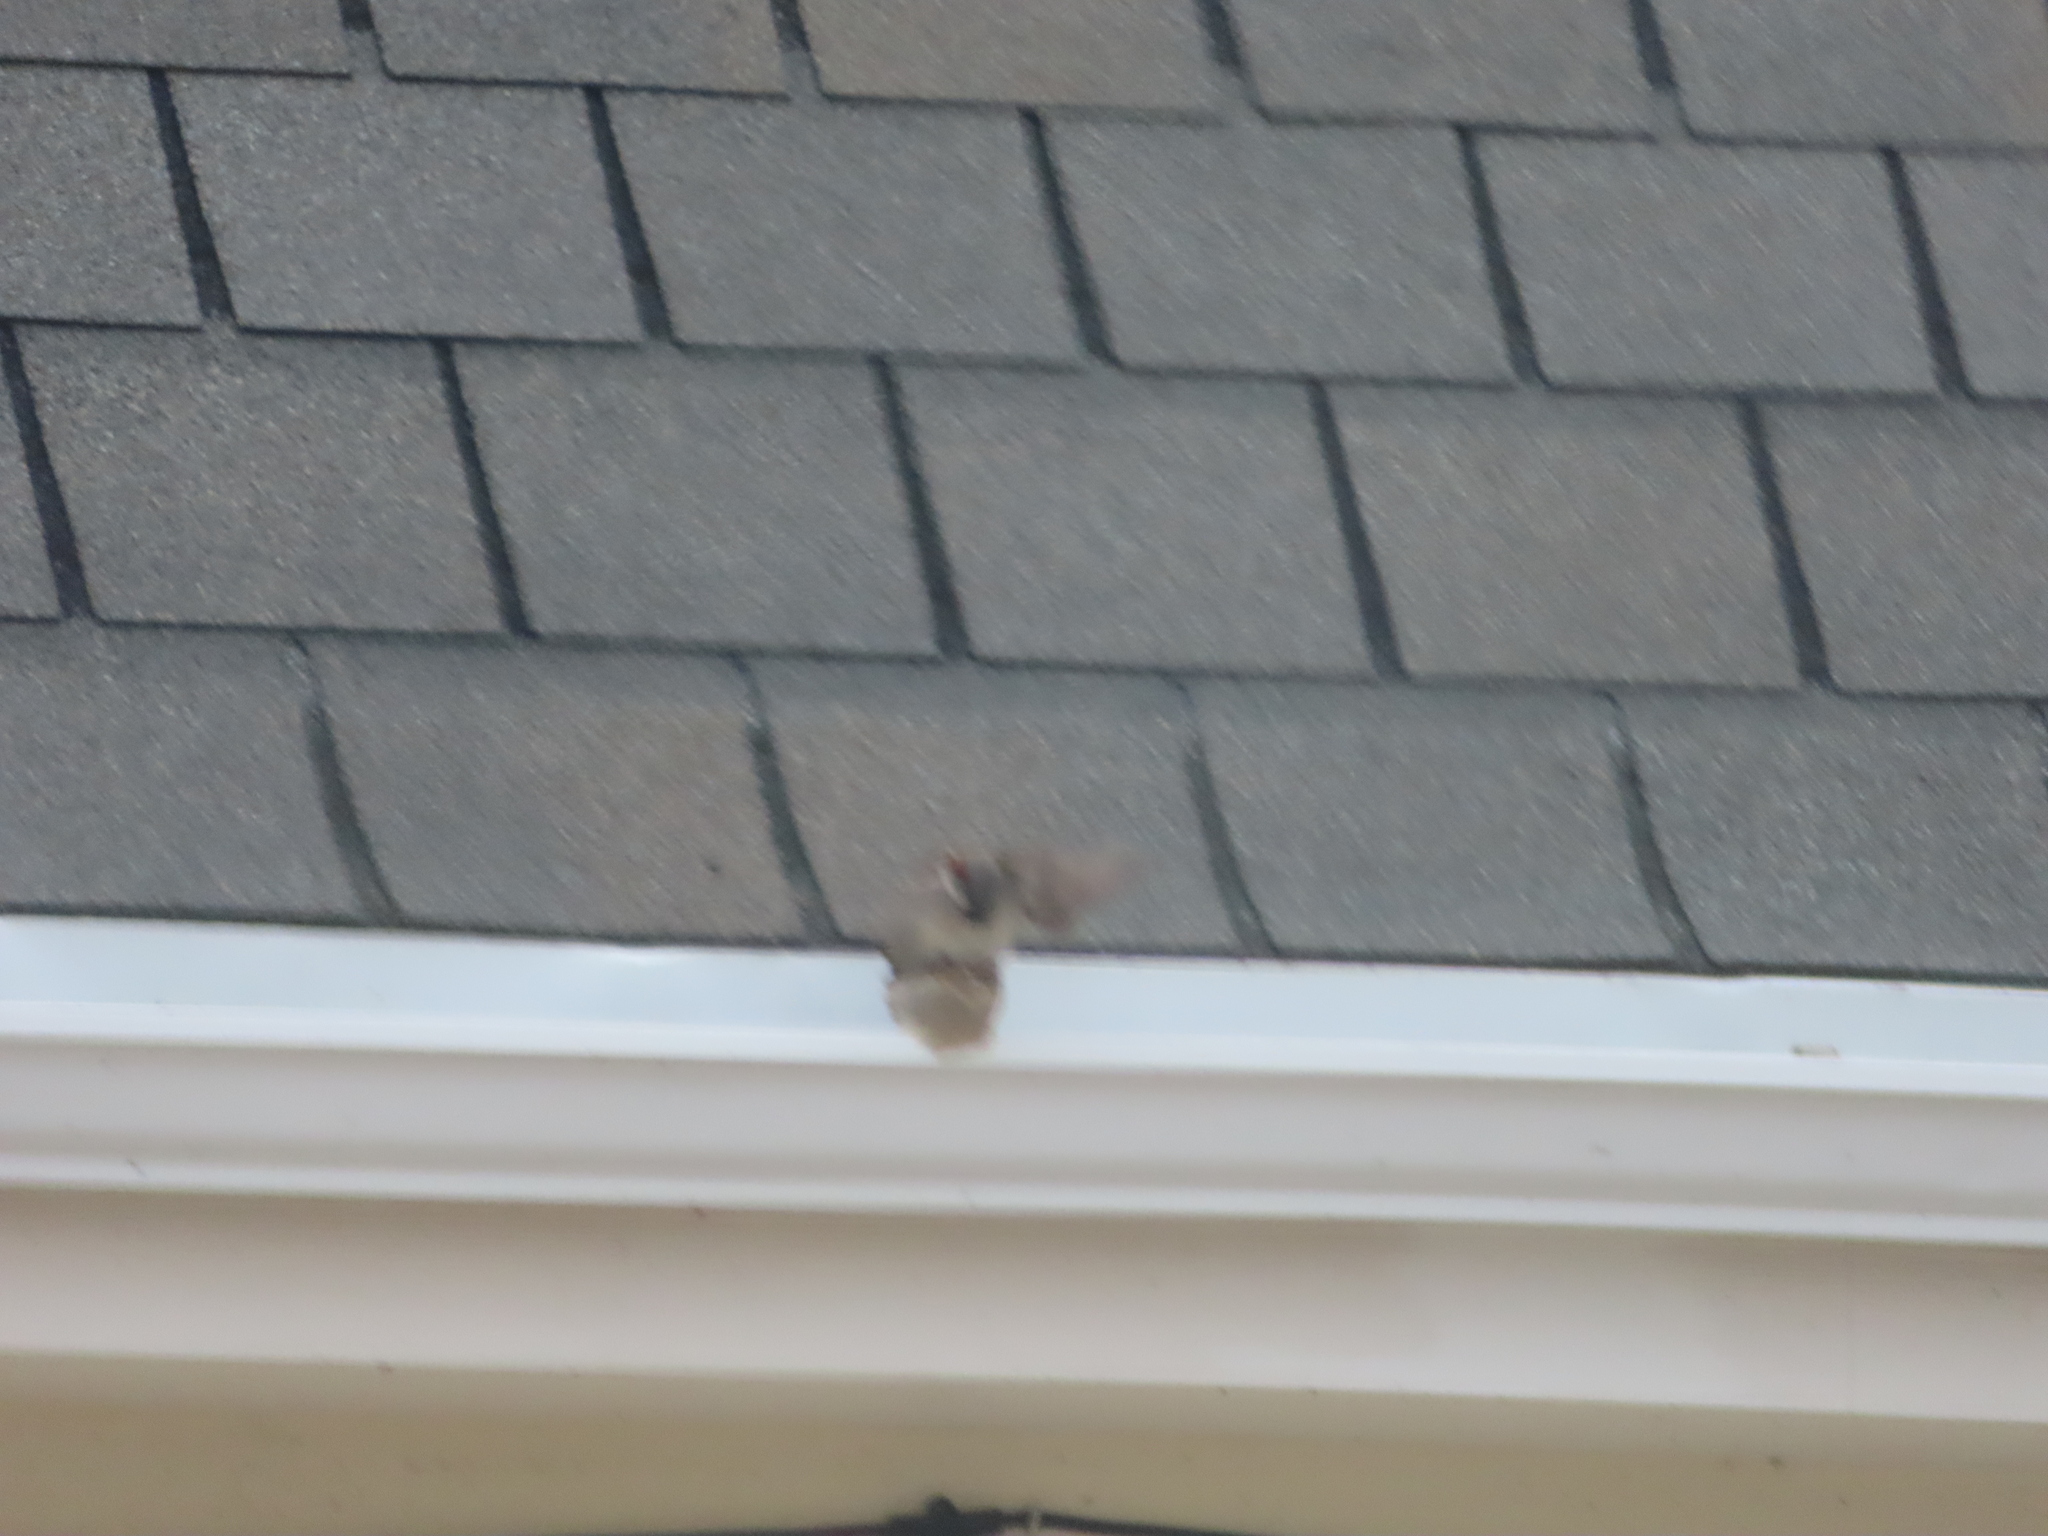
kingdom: Animalia
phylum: Chordata
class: Aves
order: Passeriformes
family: Passeridae
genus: Passer
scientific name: Passer domesticus
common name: House sparrow
